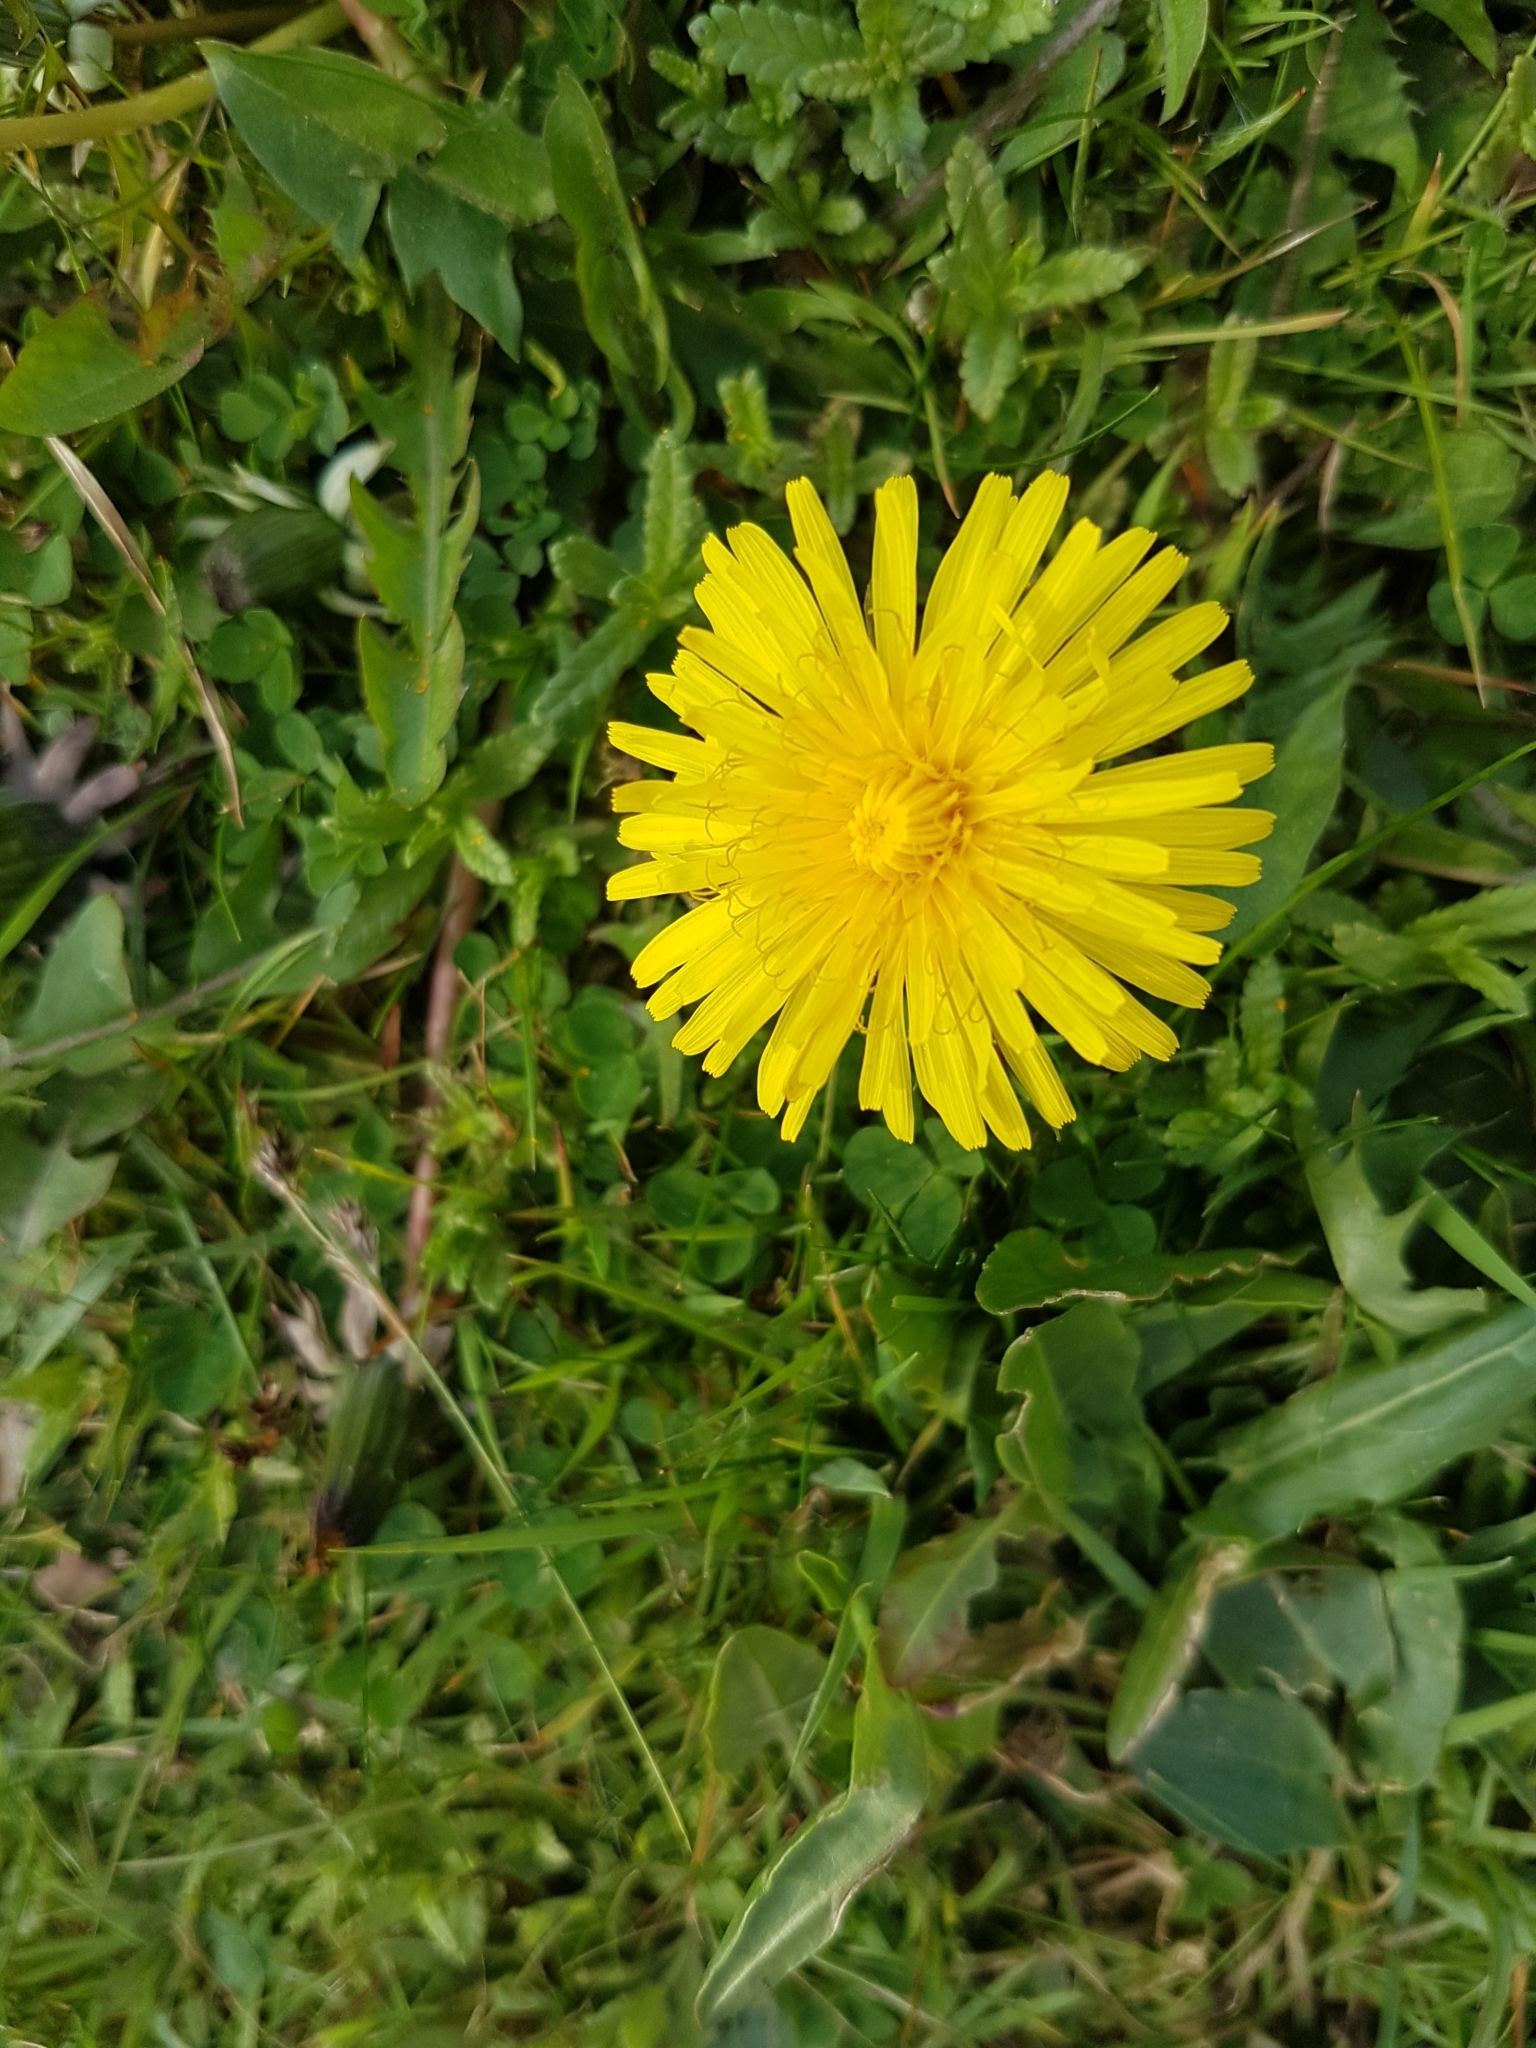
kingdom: Plantae
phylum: Tracheophyta
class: Magnoliopsida
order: Asterales
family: Asteraceae
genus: Taraxacum
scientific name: Taraxacum officinale
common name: Common dandelion
